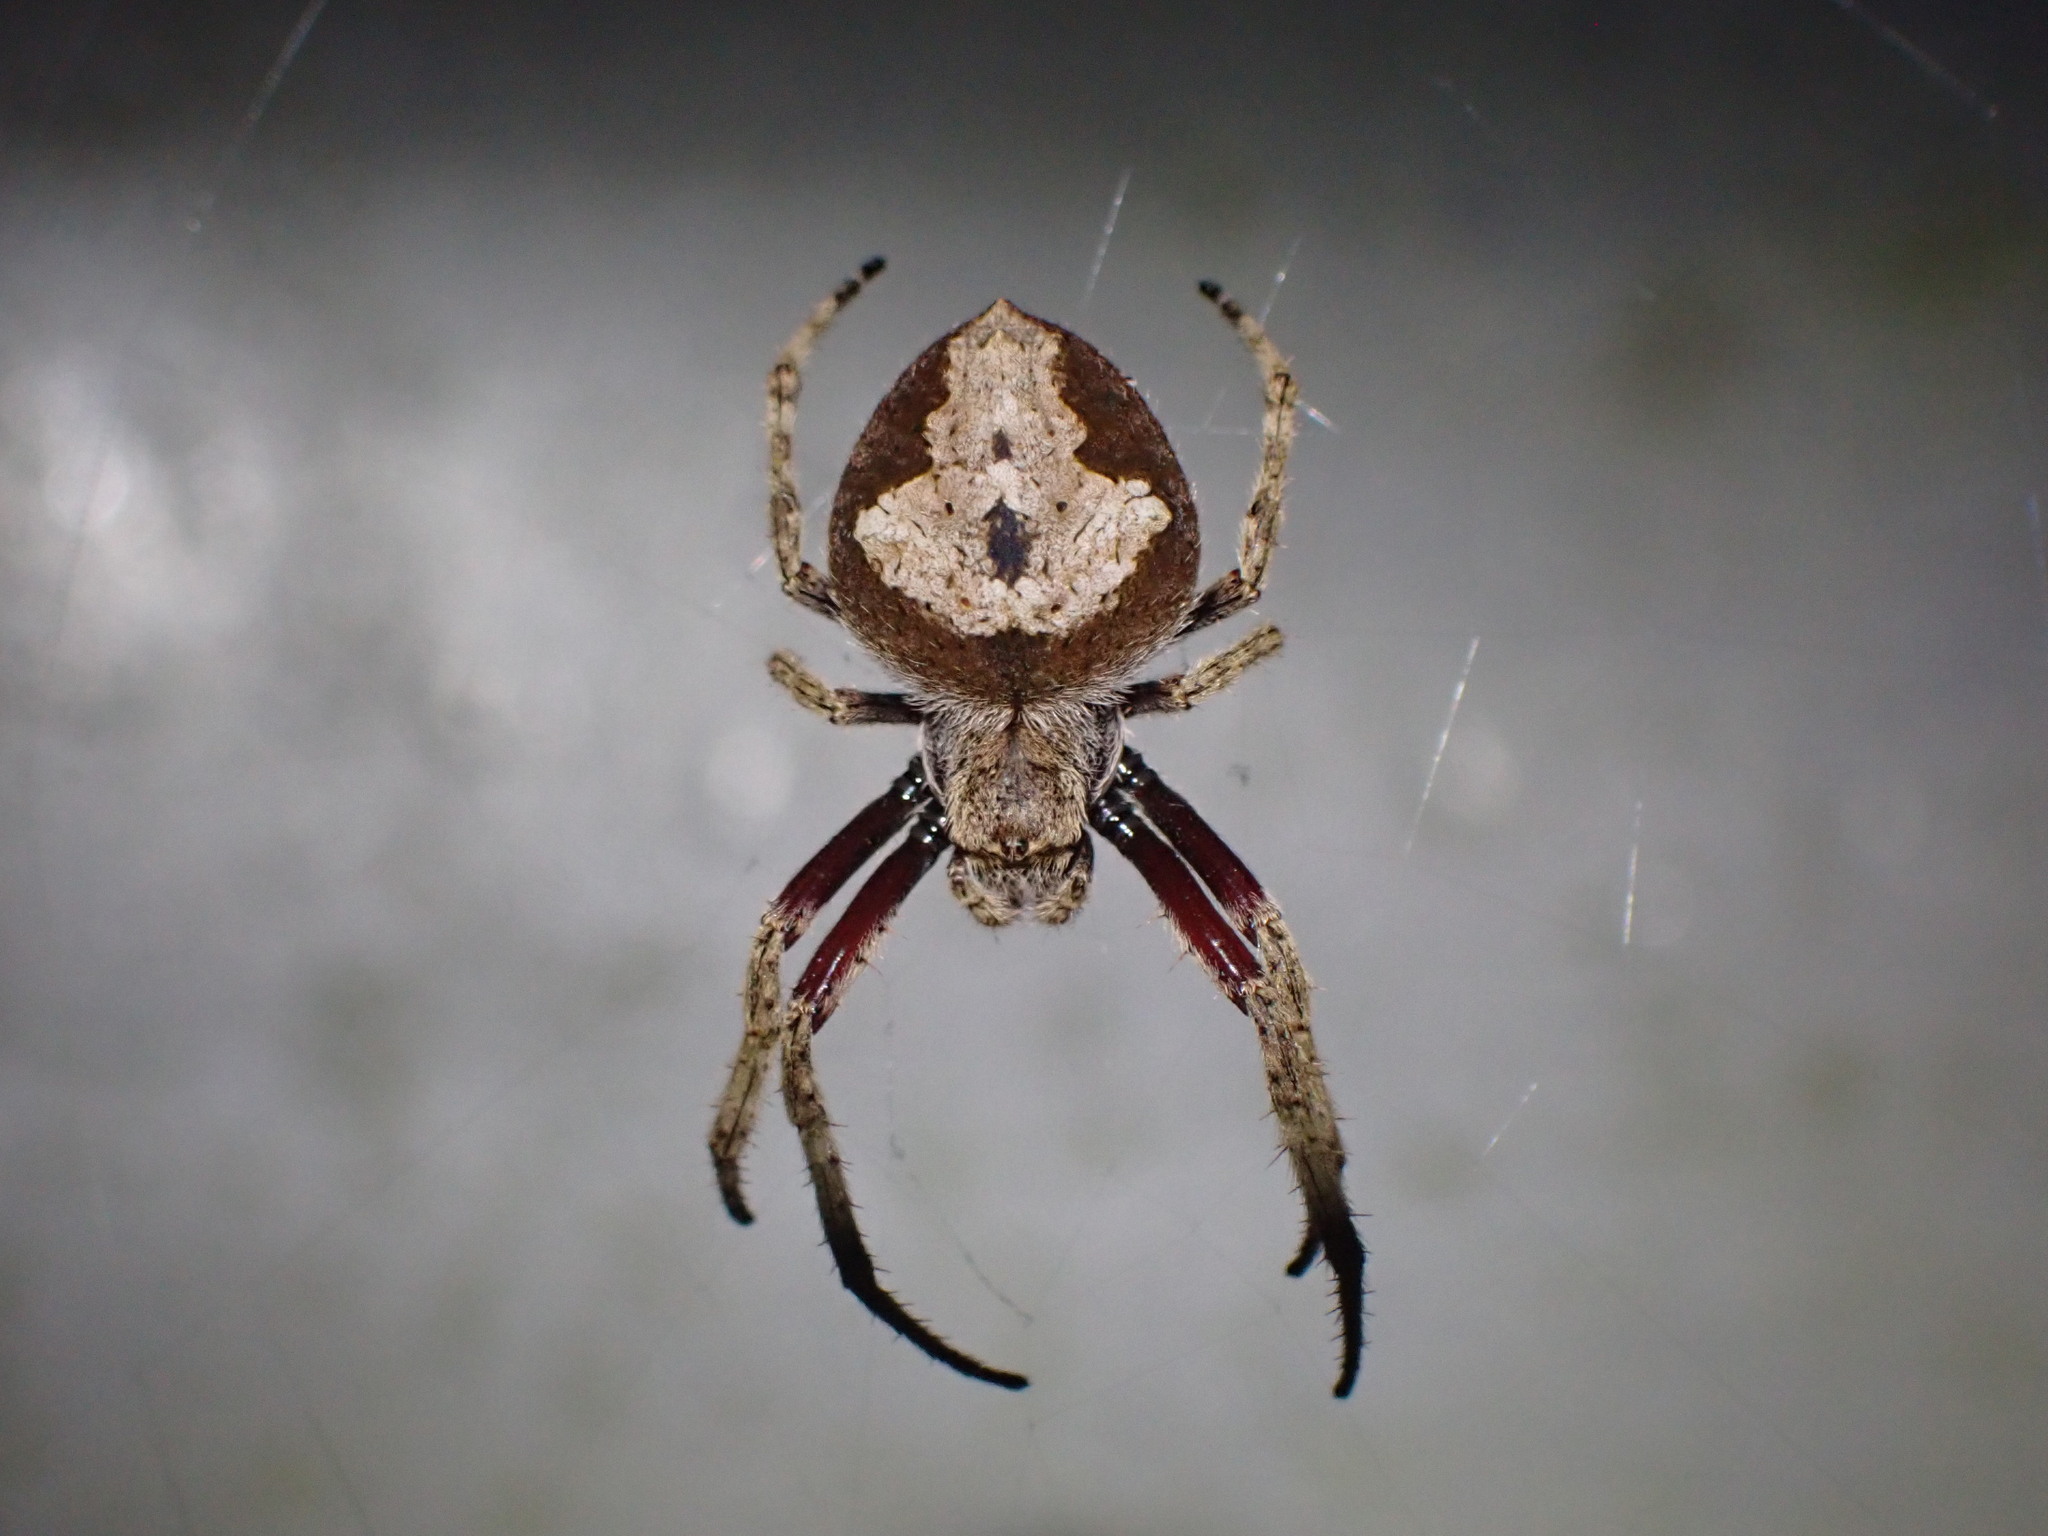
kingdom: Animalia
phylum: Arthropoda
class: Arachnida
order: Araneae
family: Araneidae
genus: Eriophora
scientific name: Eriophora pustulosa
